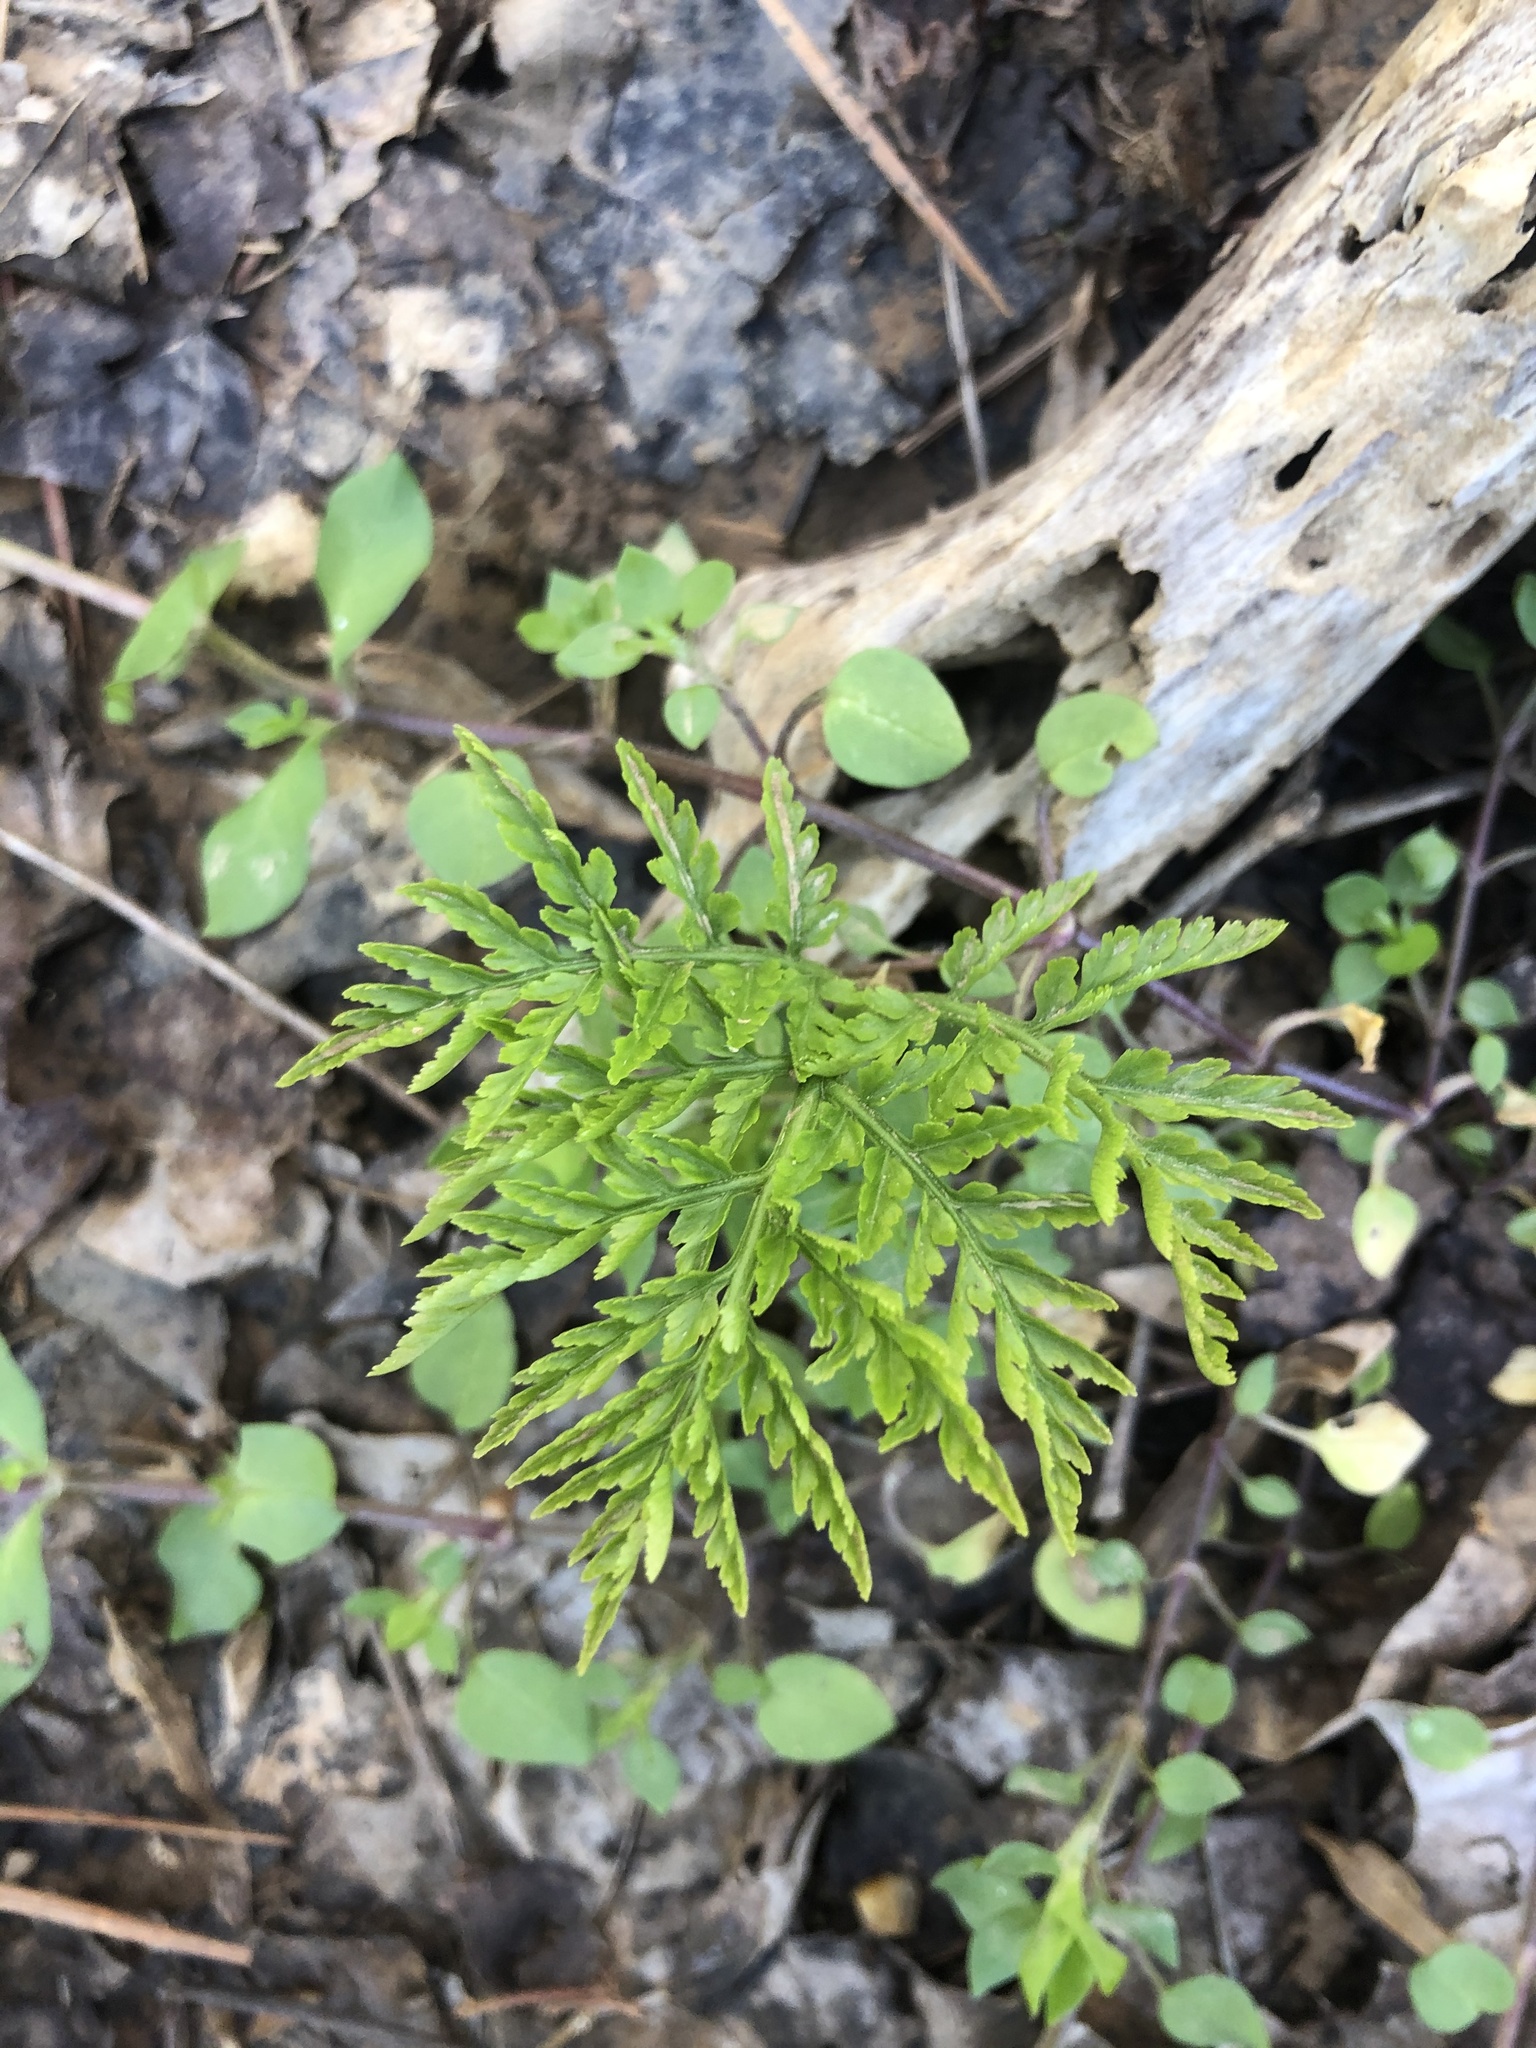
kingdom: Plantae
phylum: Tracheophyta
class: Polypodiopsida
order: Ophioglossales
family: Ophioglossaceae
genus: Botrypus
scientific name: Botrypus virginianus
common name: Common grapefern
